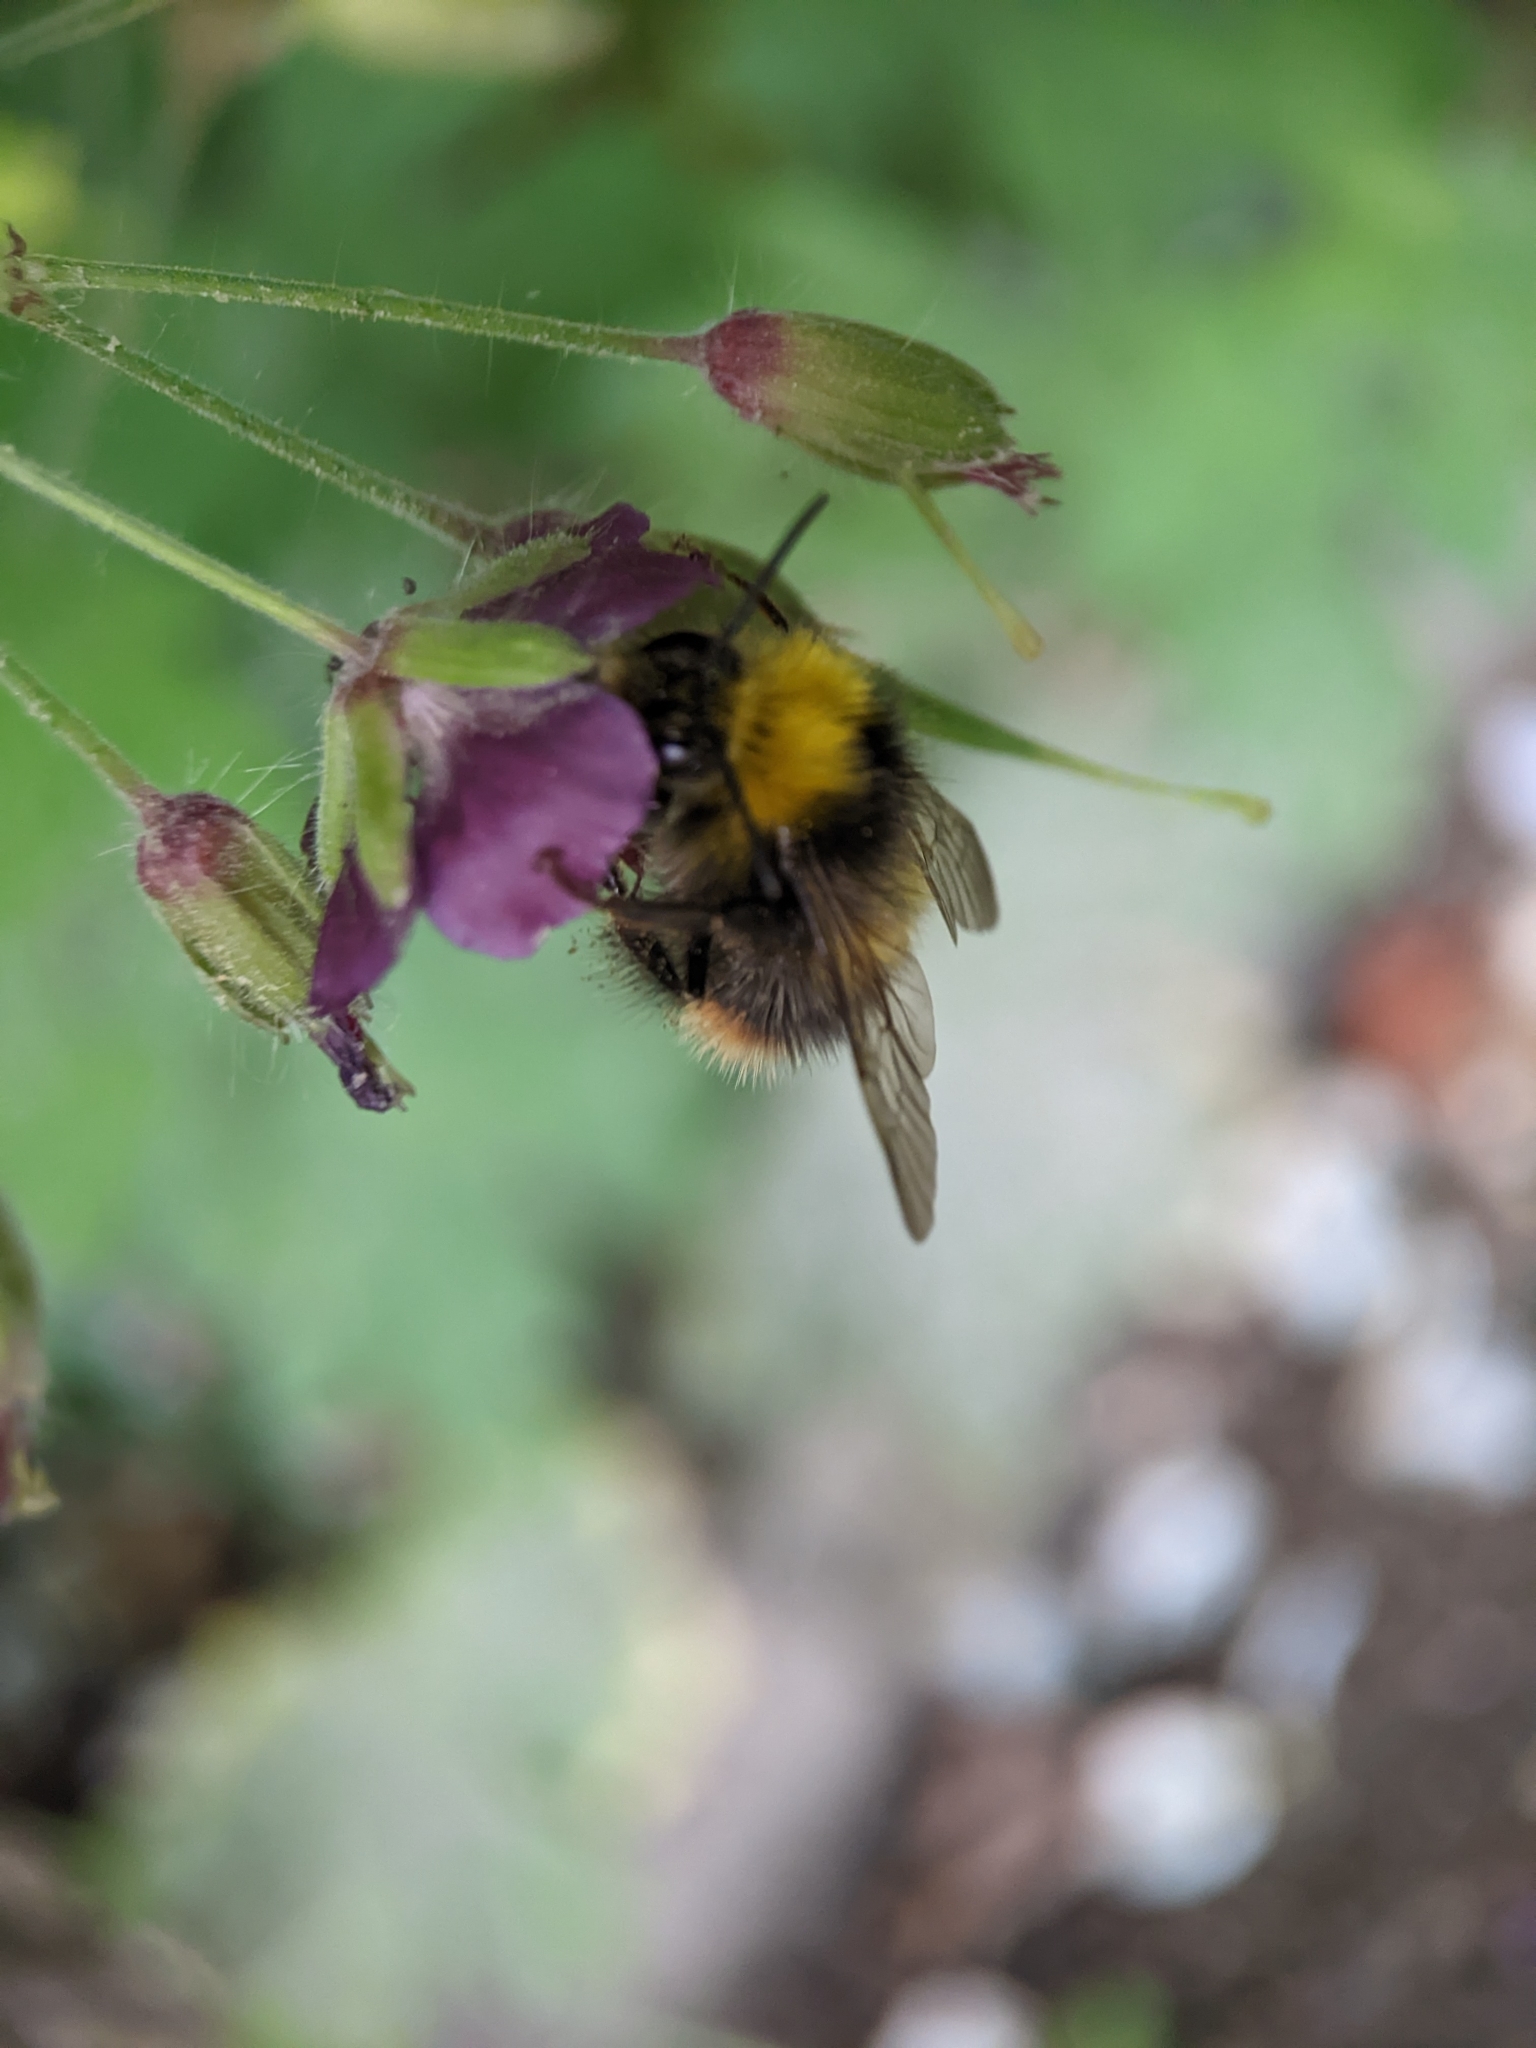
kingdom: Animalia
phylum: Arthropoda
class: Insecta
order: Hymenoptera
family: Apidae
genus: Bombus
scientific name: Bombus pratorum
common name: Early humble-bee
